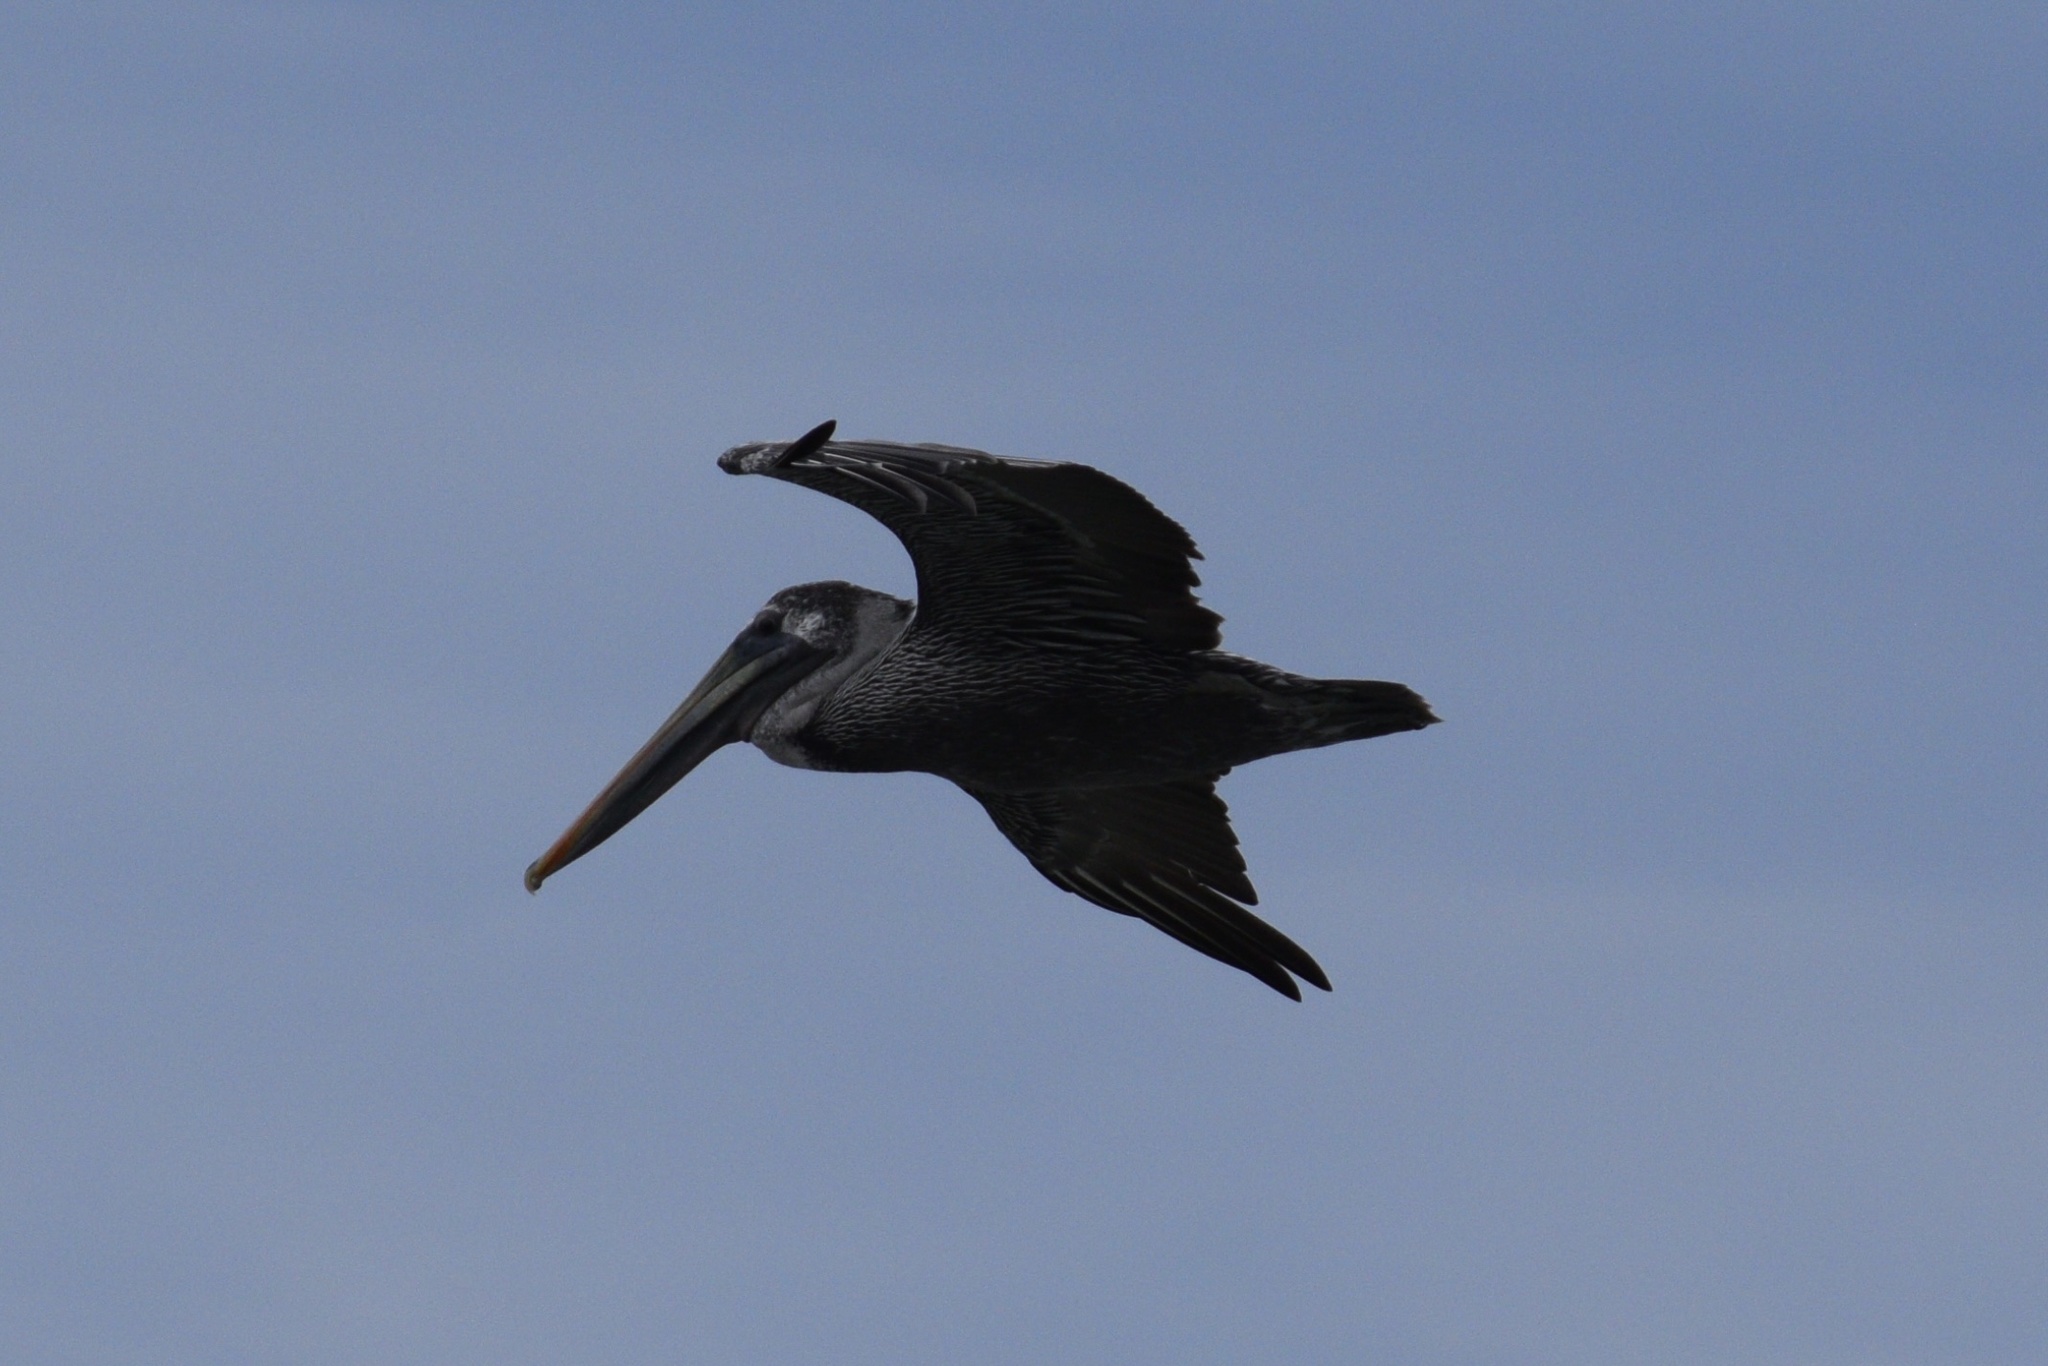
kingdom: Animalia
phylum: Chordata
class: Aves
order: Pelecaniformes
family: Pelecanidae
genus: Pelecanus
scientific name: Pelecanus occidentalis
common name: Brown pelican
